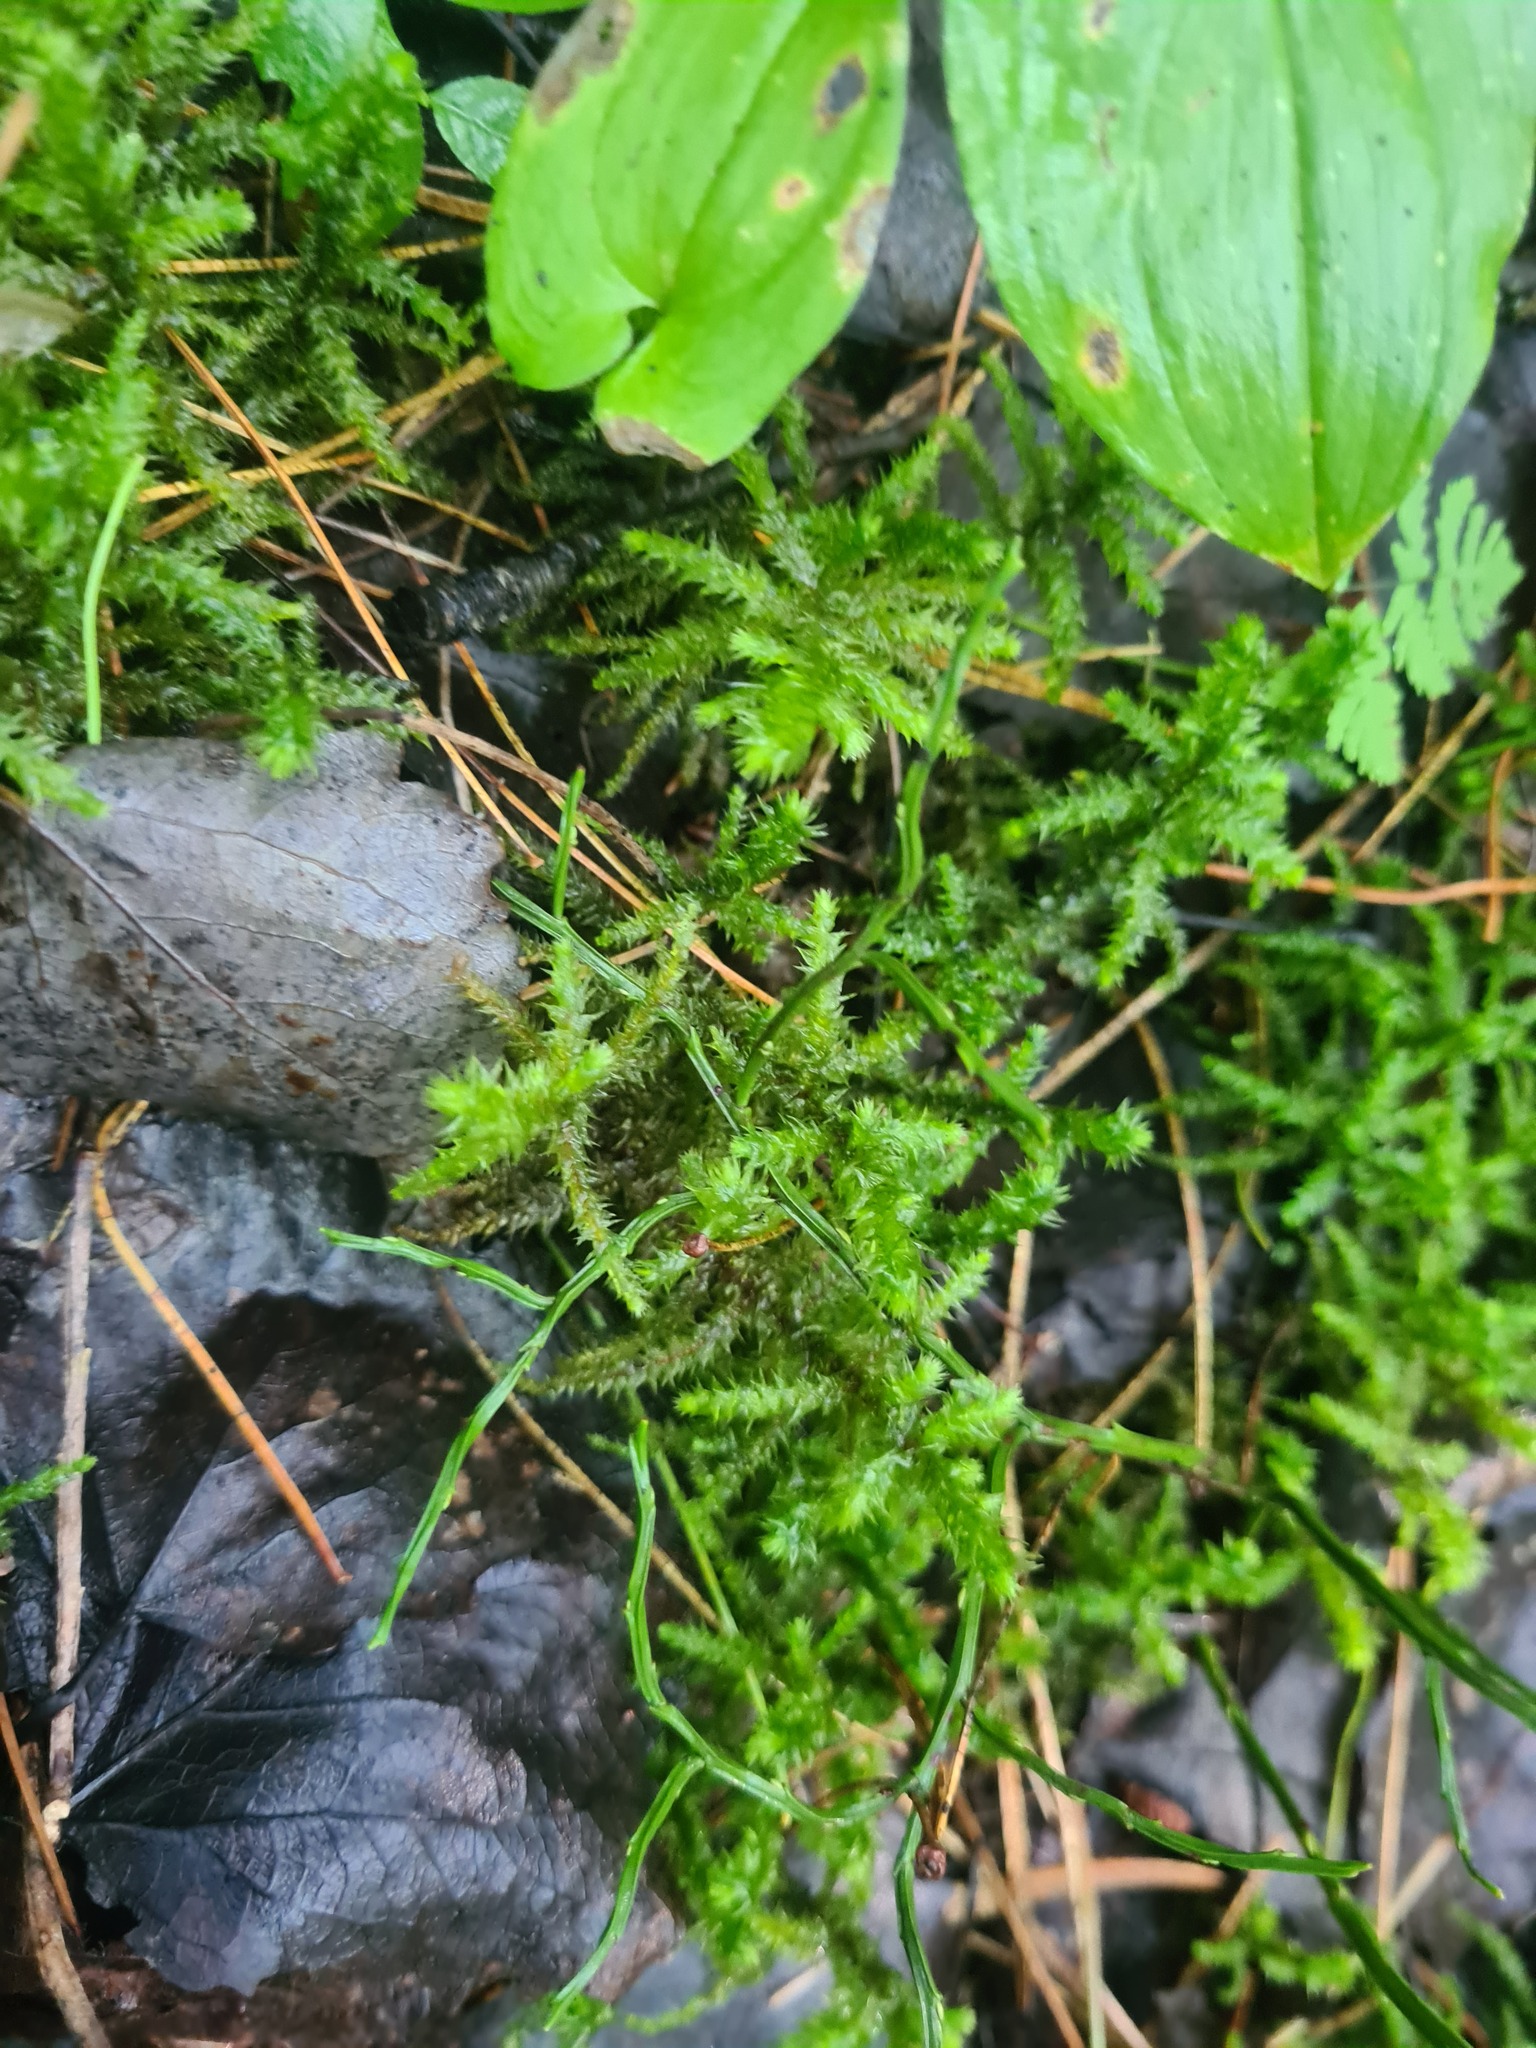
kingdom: Plantae
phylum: Bryophyta
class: Bryopsida
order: Hypnales
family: Hylocomiaceae
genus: Hylocomiadelphus
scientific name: Hylocomiadelphus triquetrus
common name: Rough goose neck moss
